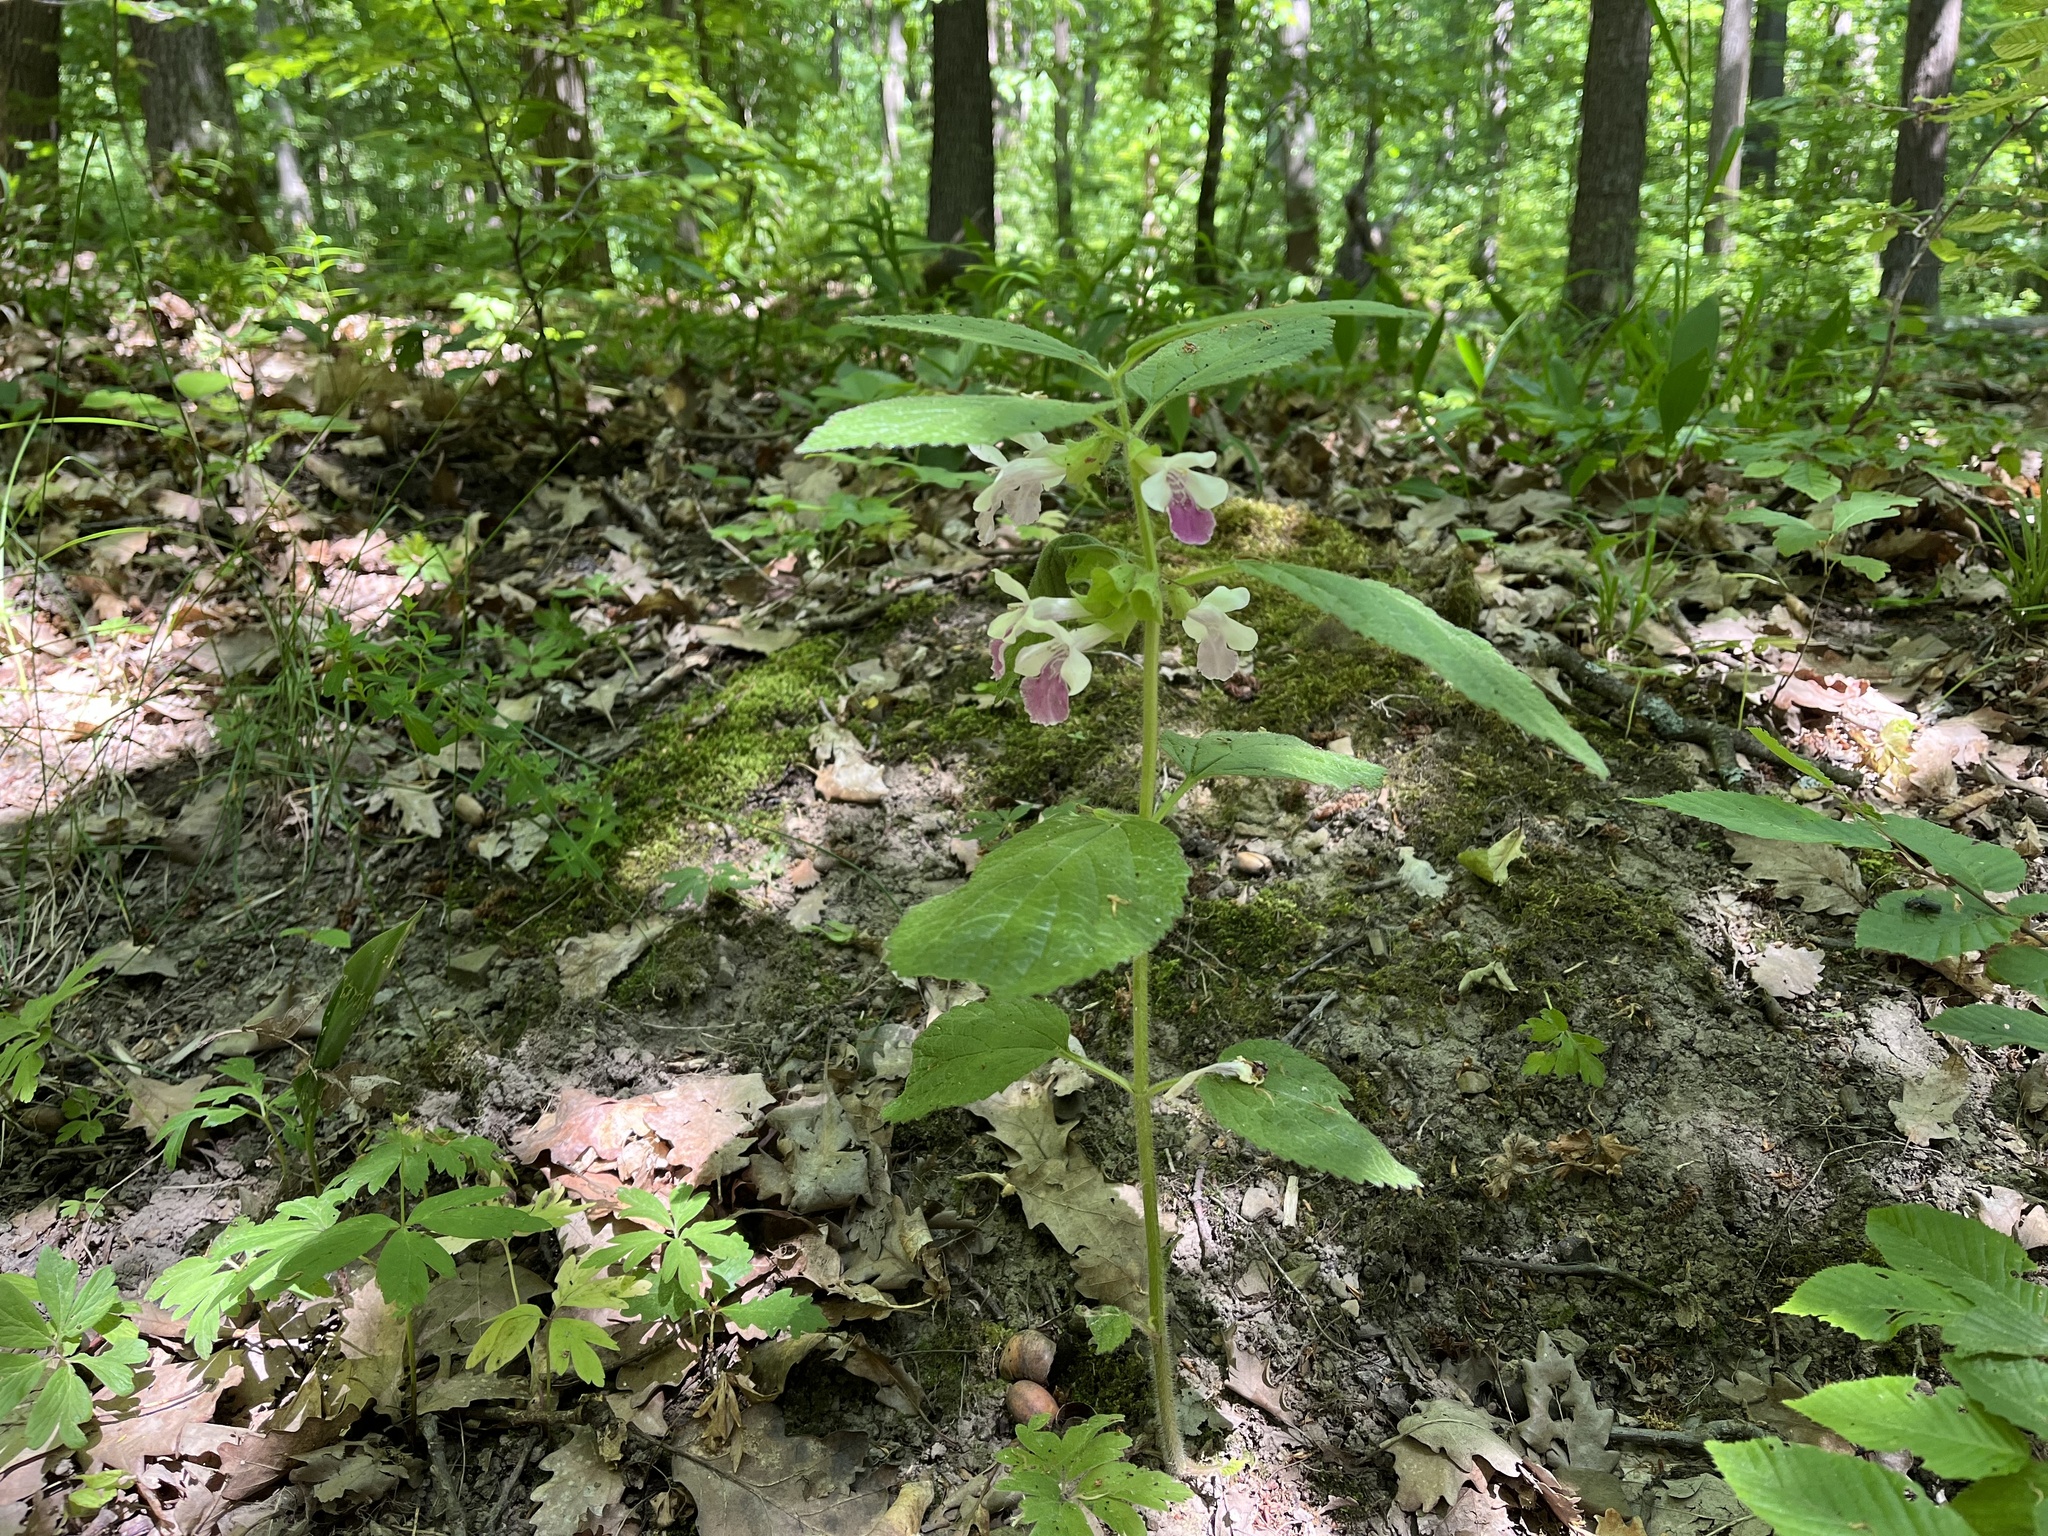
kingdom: Plantae
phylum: Tracheophyta
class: Magnoliopsida
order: Lamiales
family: Lamiaceae
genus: Melittis
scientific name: Melittis melissophyllum
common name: Bastard balm
